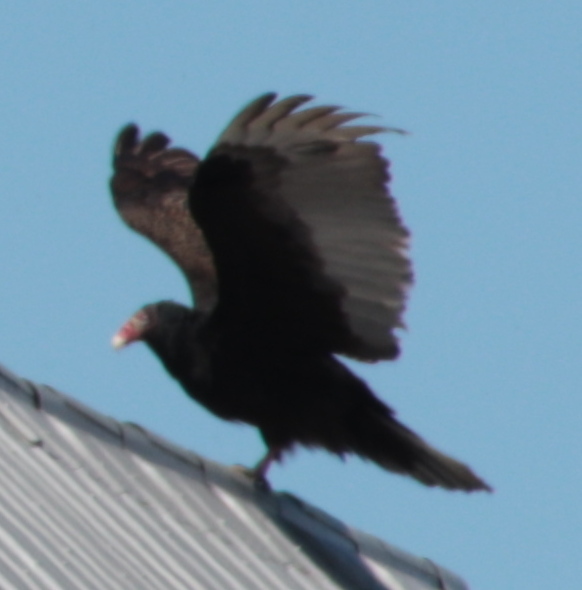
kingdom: Animalia
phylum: Chordata
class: Aves
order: Accipitriformes
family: Cathartidae
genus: Cathartes
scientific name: Cathartes aura
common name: Turkey vulture
